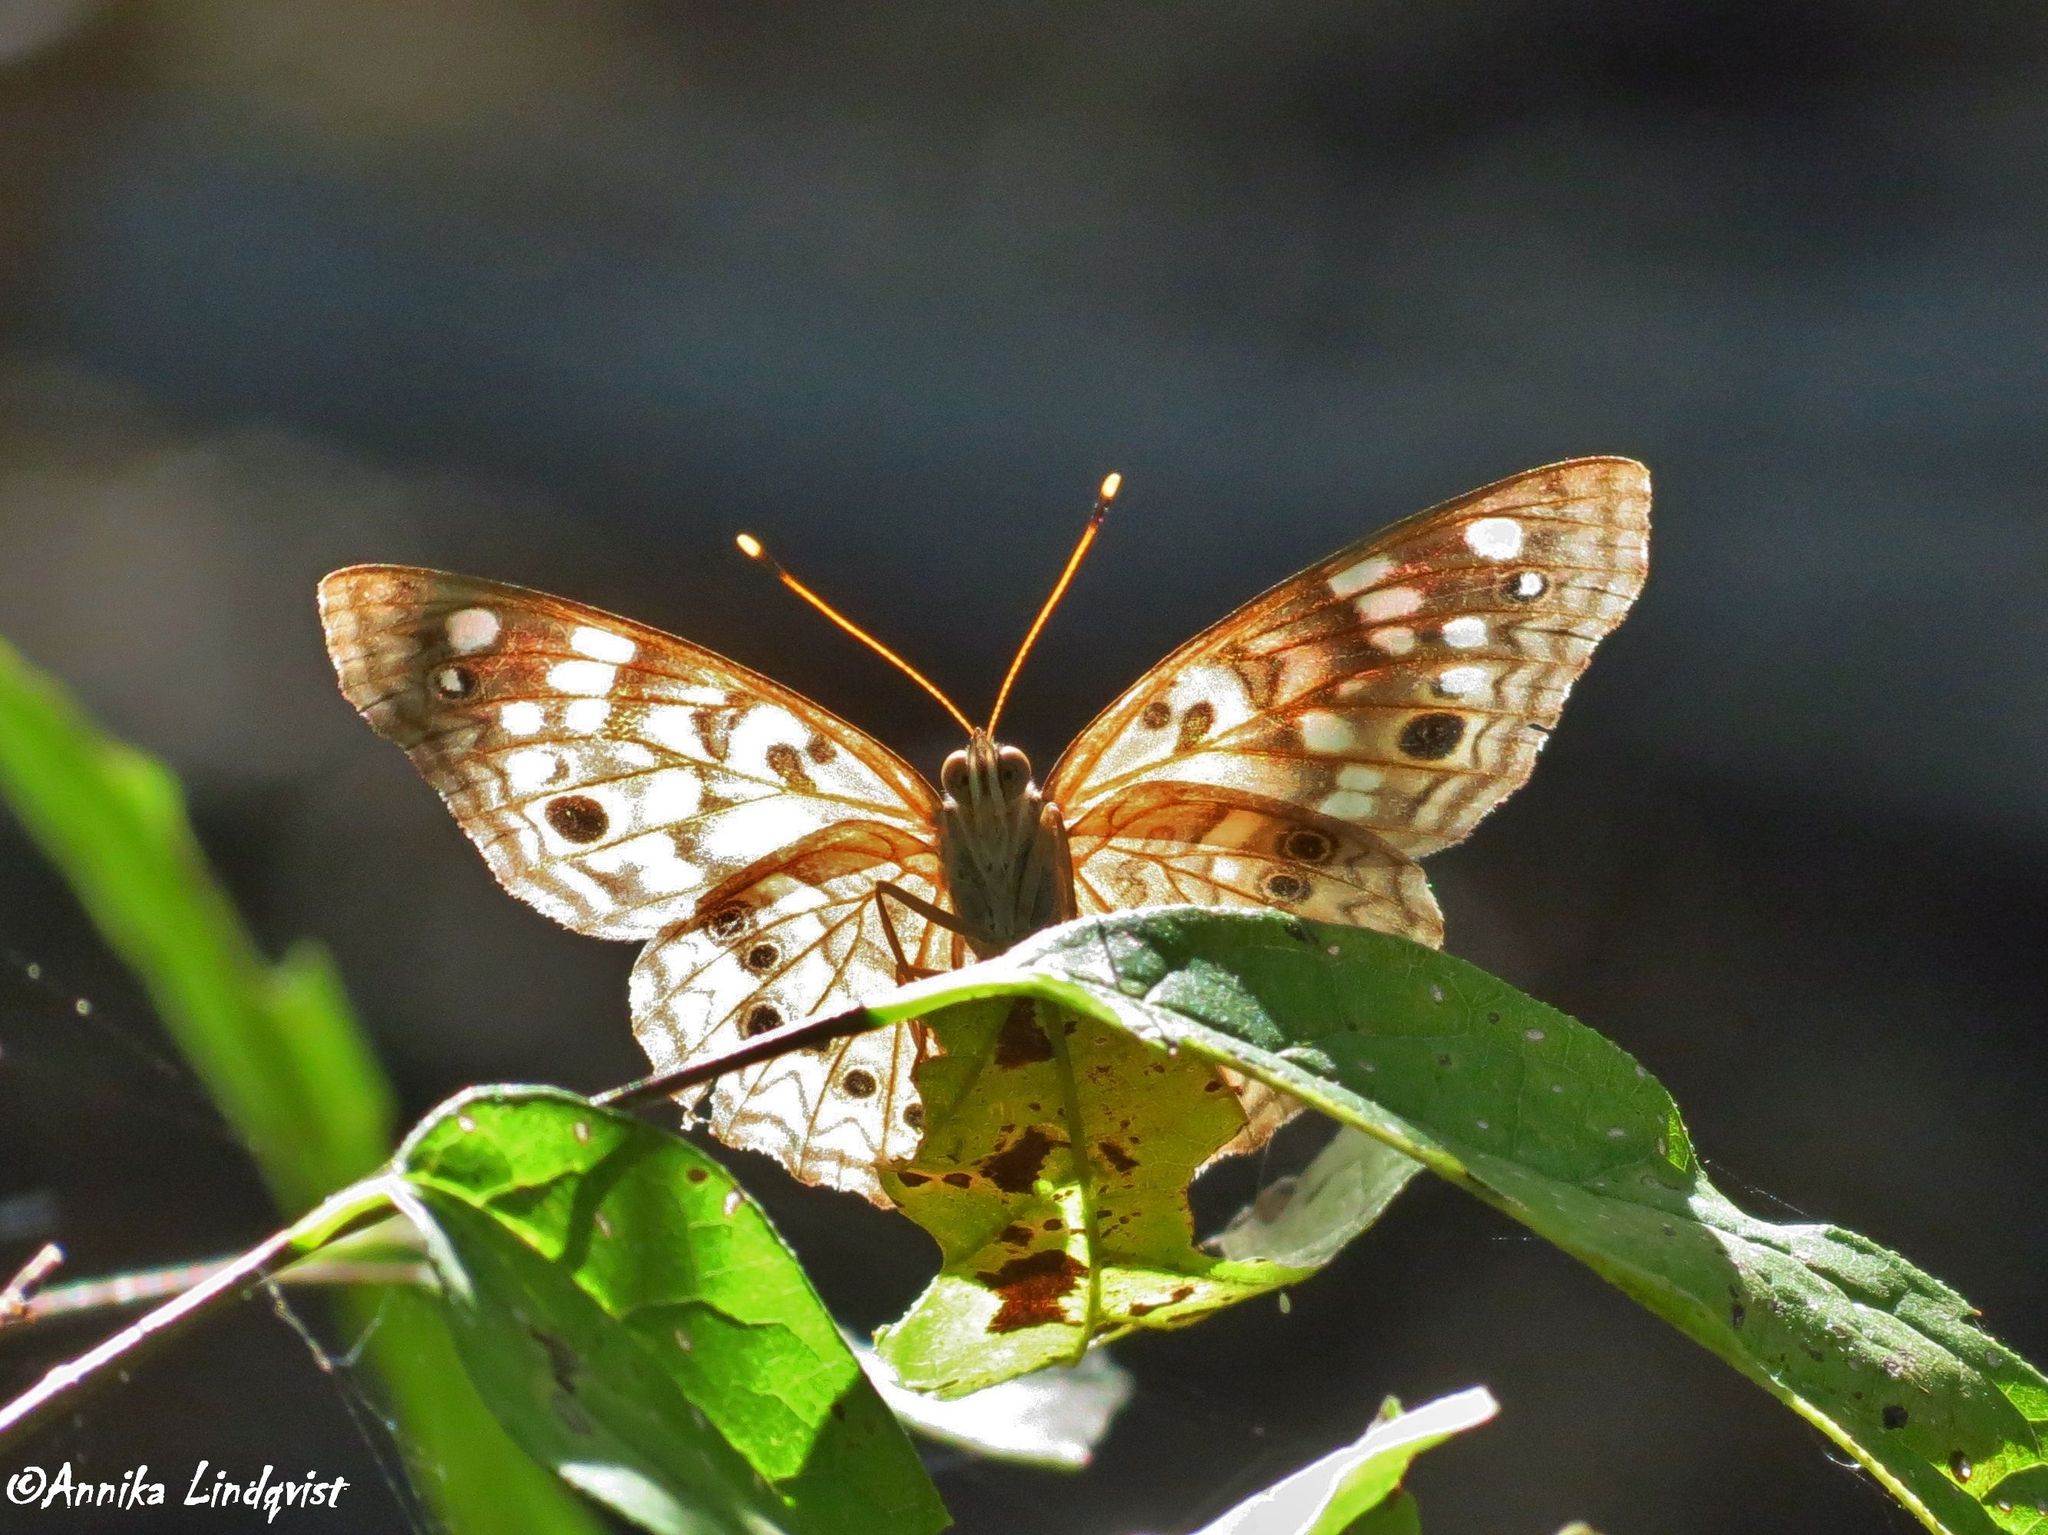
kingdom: Animalia
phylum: Arthropoda
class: Insecta
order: Lepidoptera
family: Nymphalidae
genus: Asterocampa
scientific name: Asterocampa celtis
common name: Hackberry emperor
